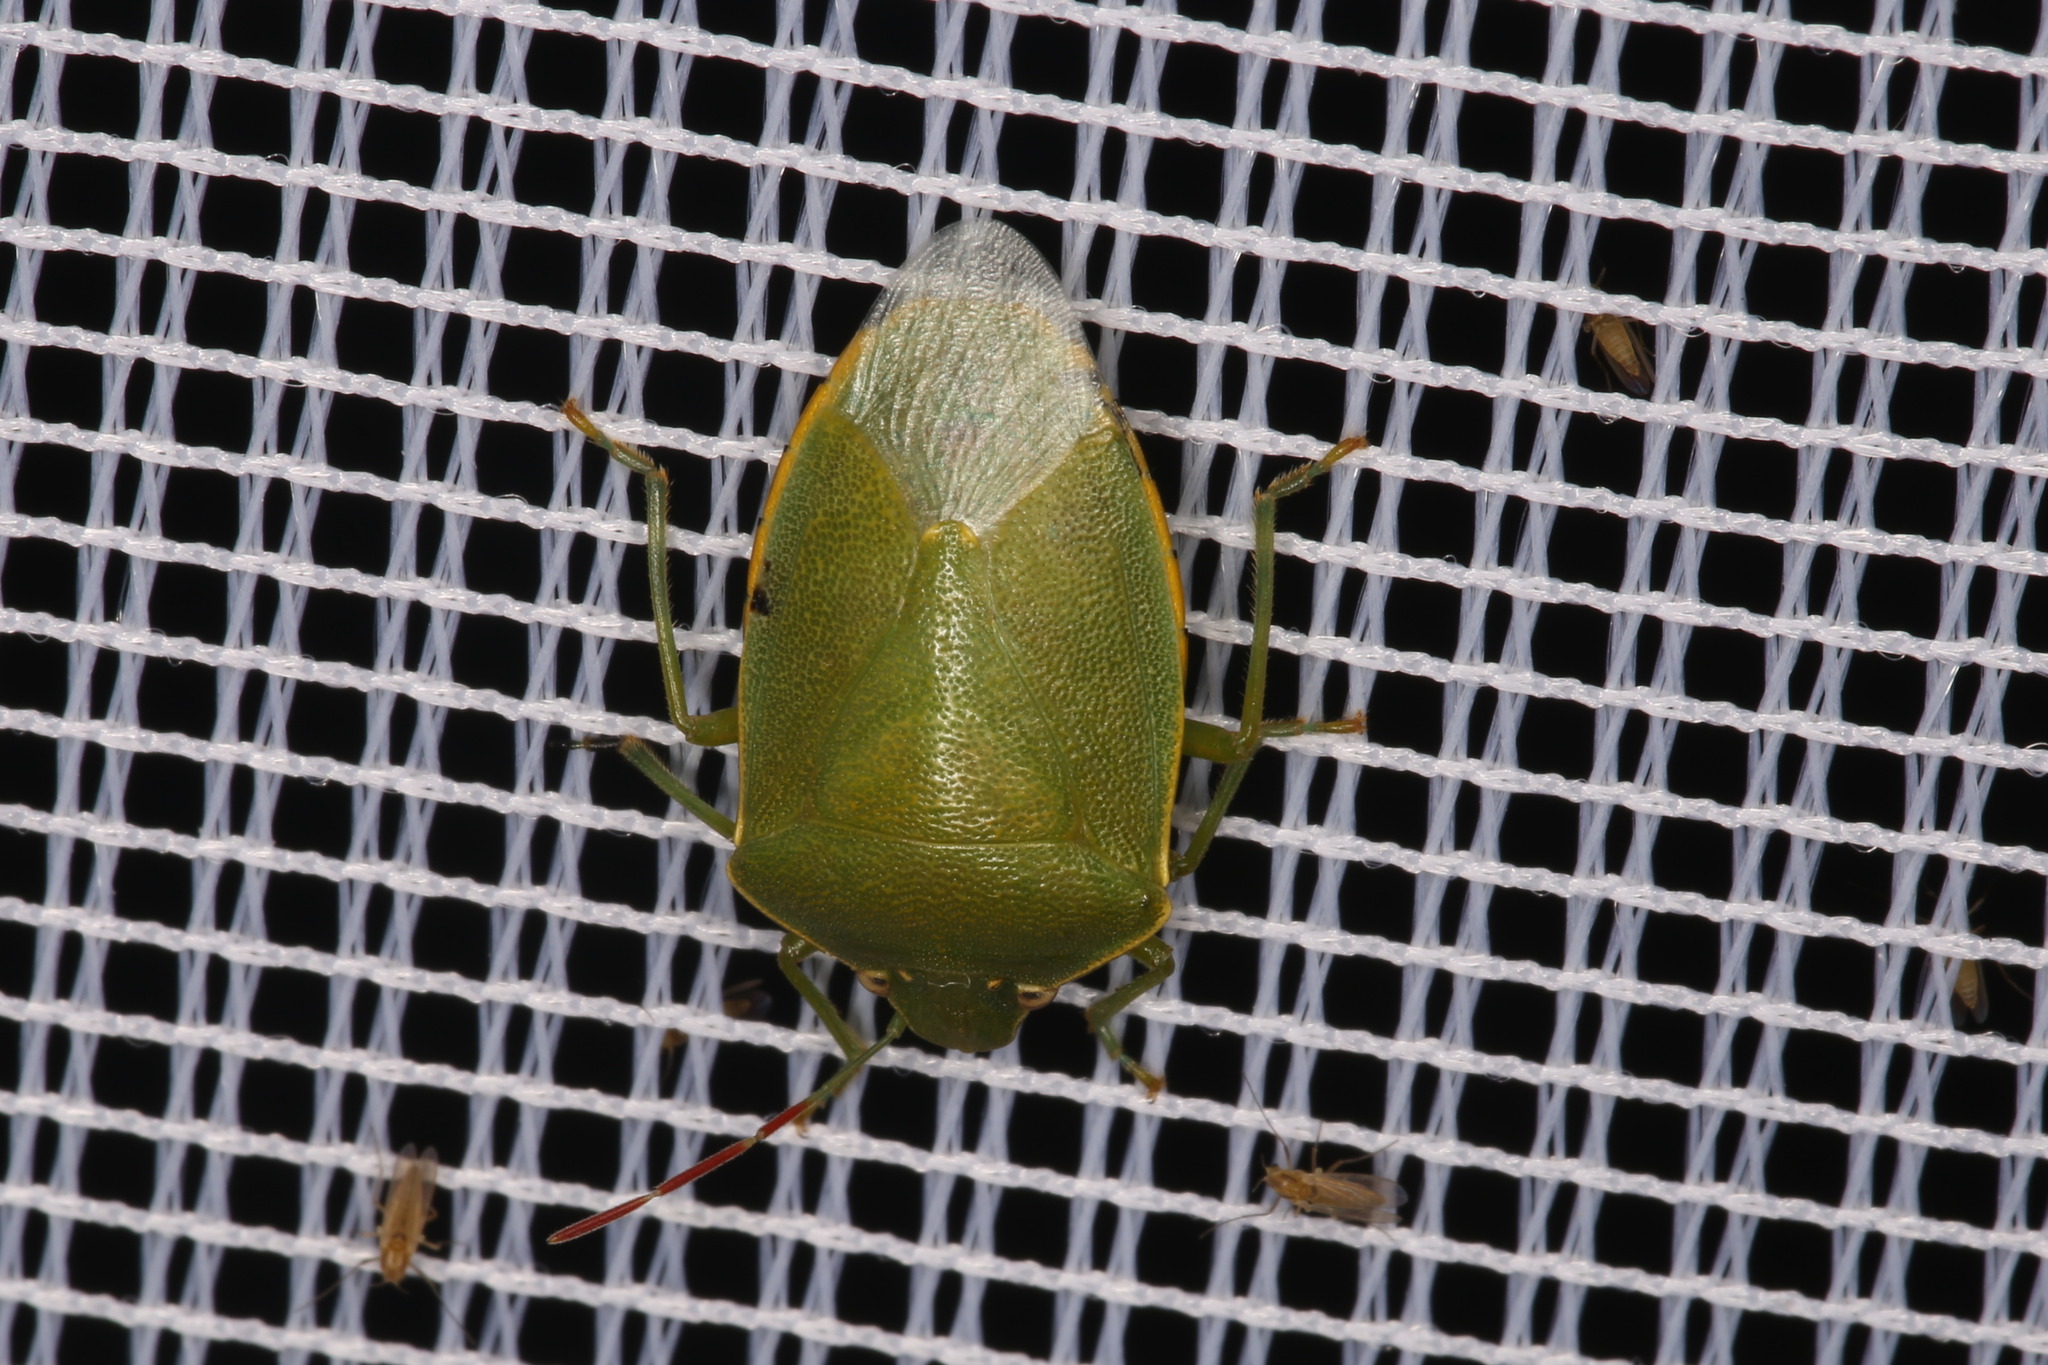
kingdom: Animalia
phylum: Arthropoda
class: Insecta
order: Hemiptera
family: Pentatomidae
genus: Acrosternum
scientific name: Acrosternum heegeri
